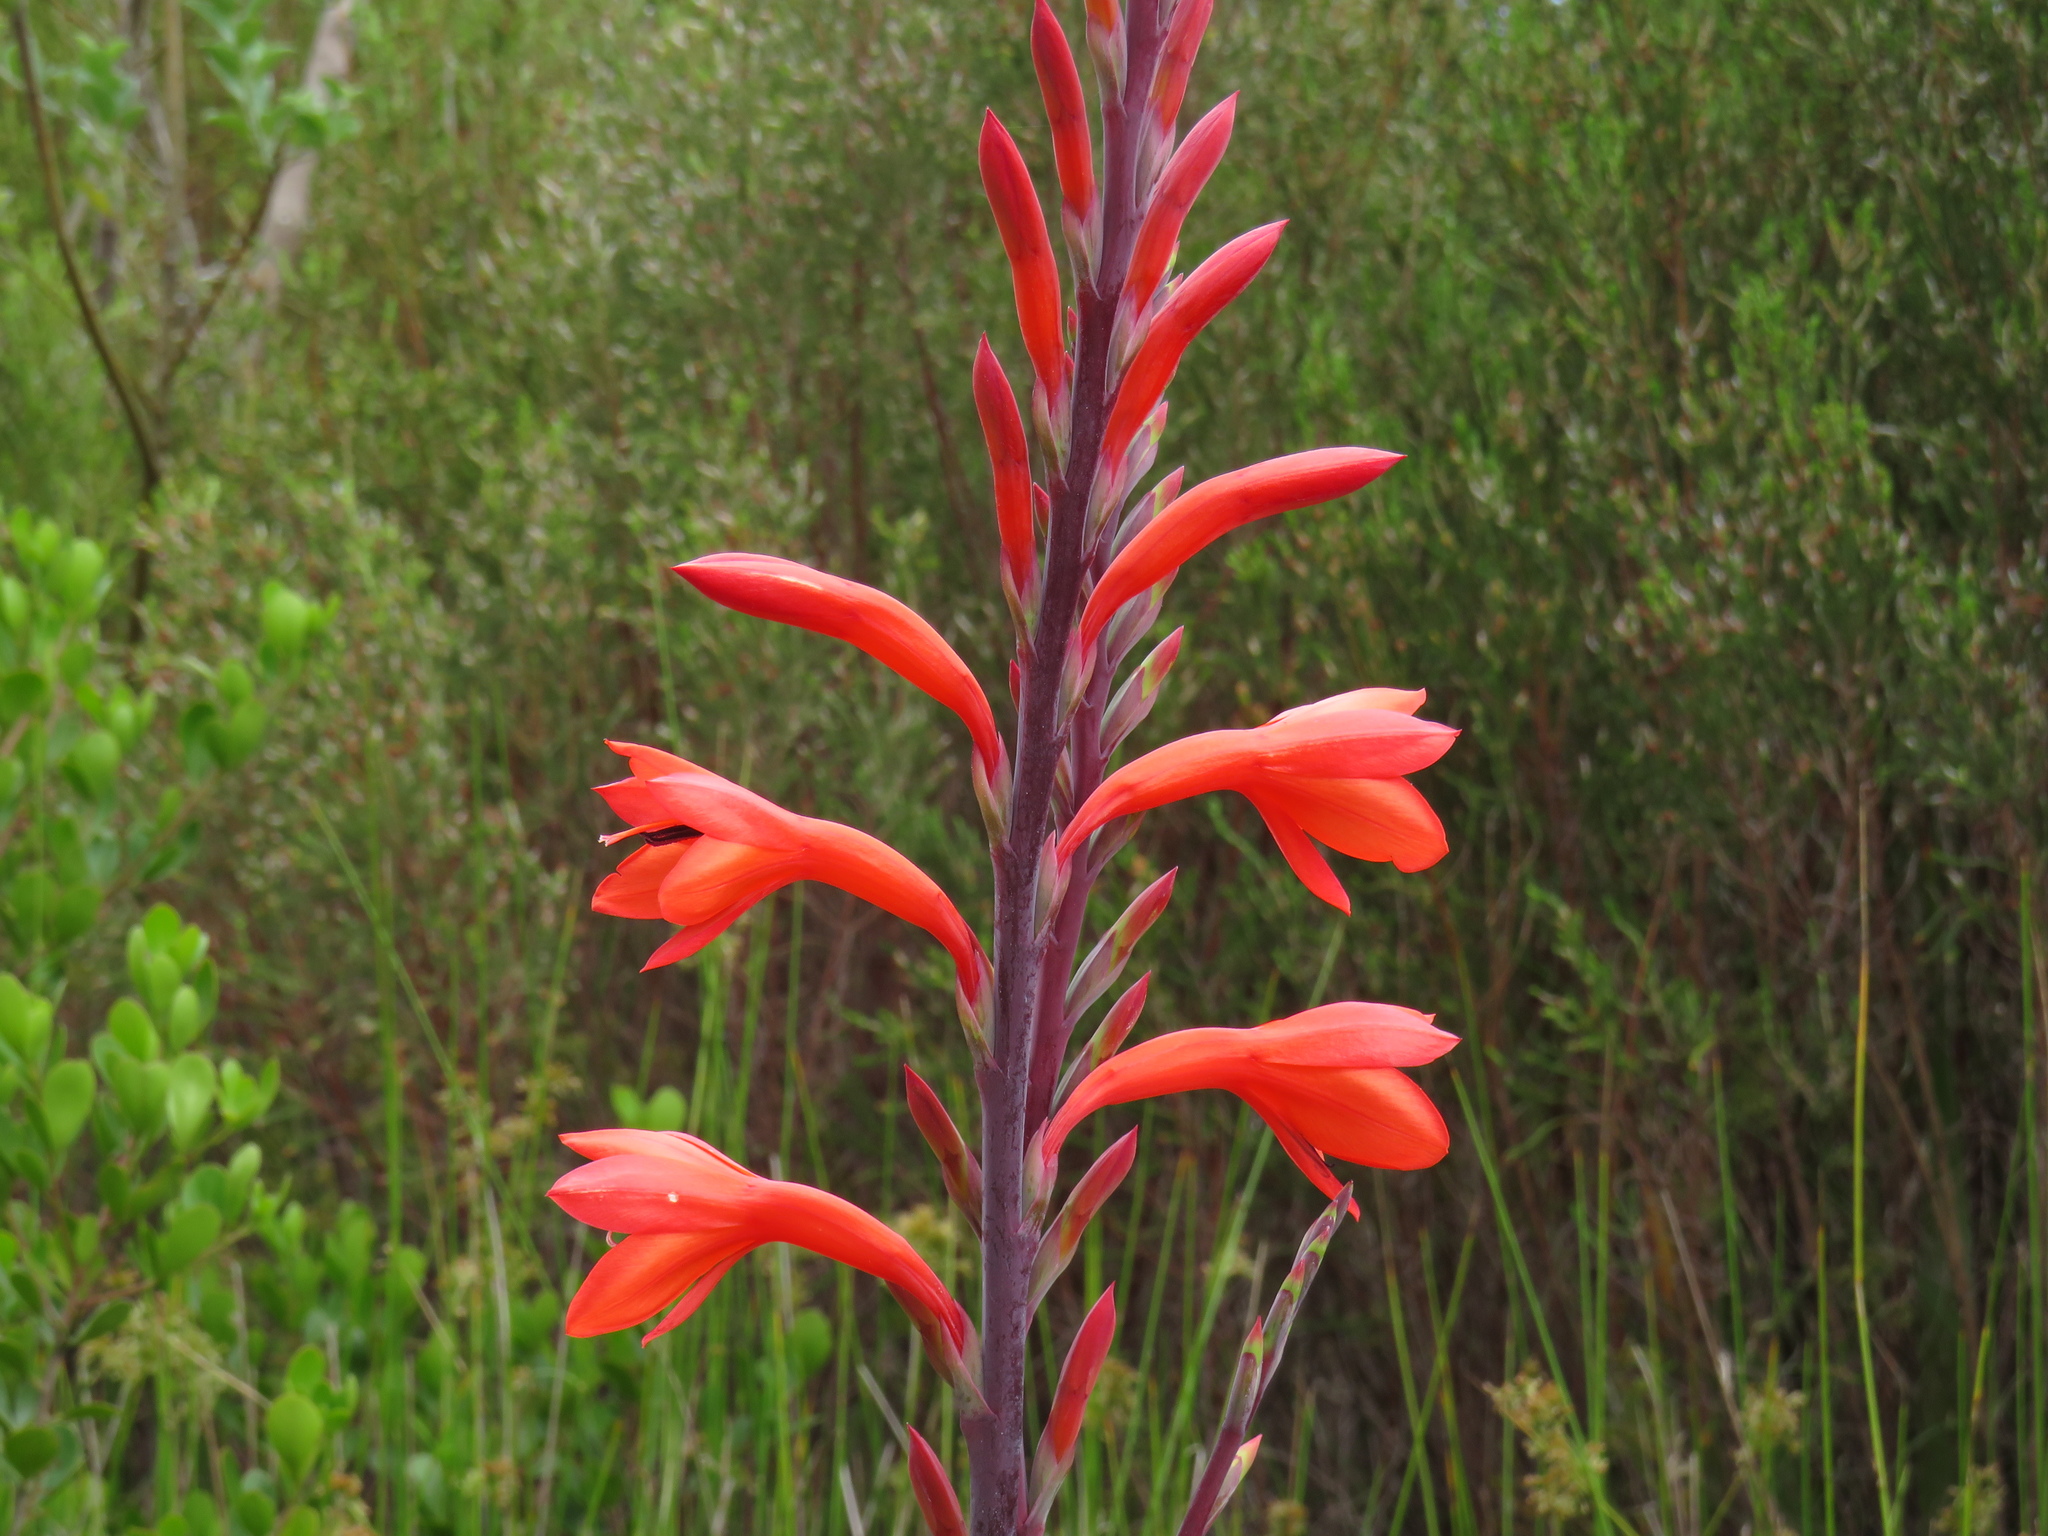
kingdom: Plantae
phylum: Tracheophyta
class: Liliopsida
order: Asparagales
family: Iridaceae
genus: Watsonia
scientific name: Watsonia tabularis
